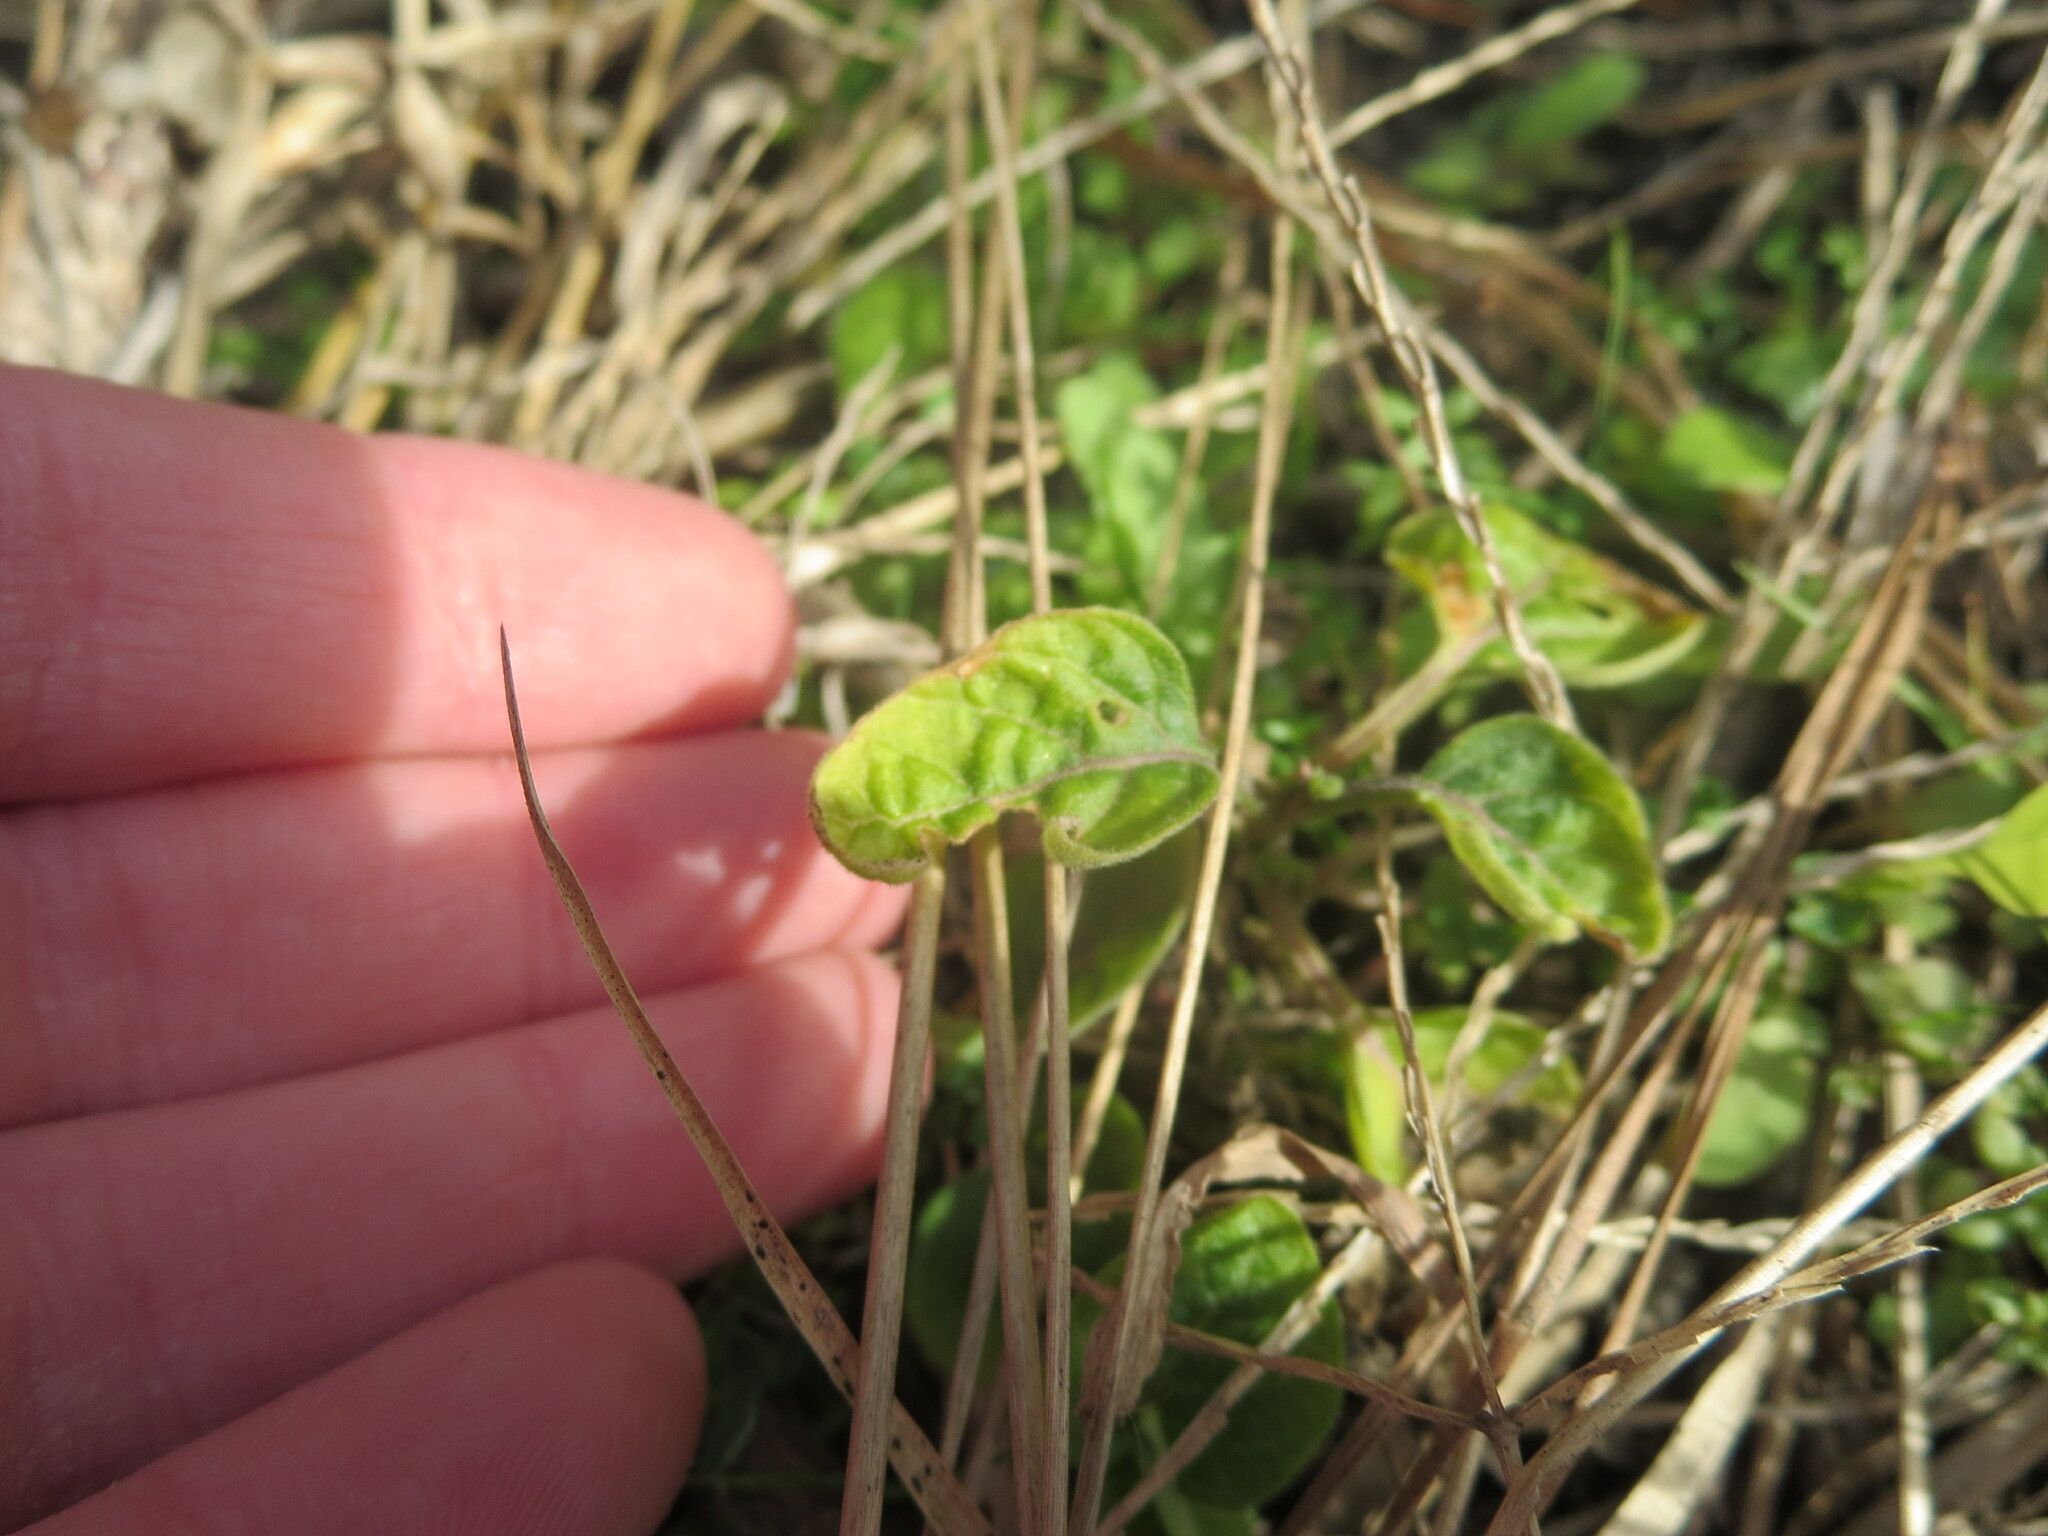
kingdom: Plantae
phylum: Tracheophyta
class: Magnoliopsida
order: Solanales
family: Solanaceae
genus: Physalis
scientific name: Physalis walteri
